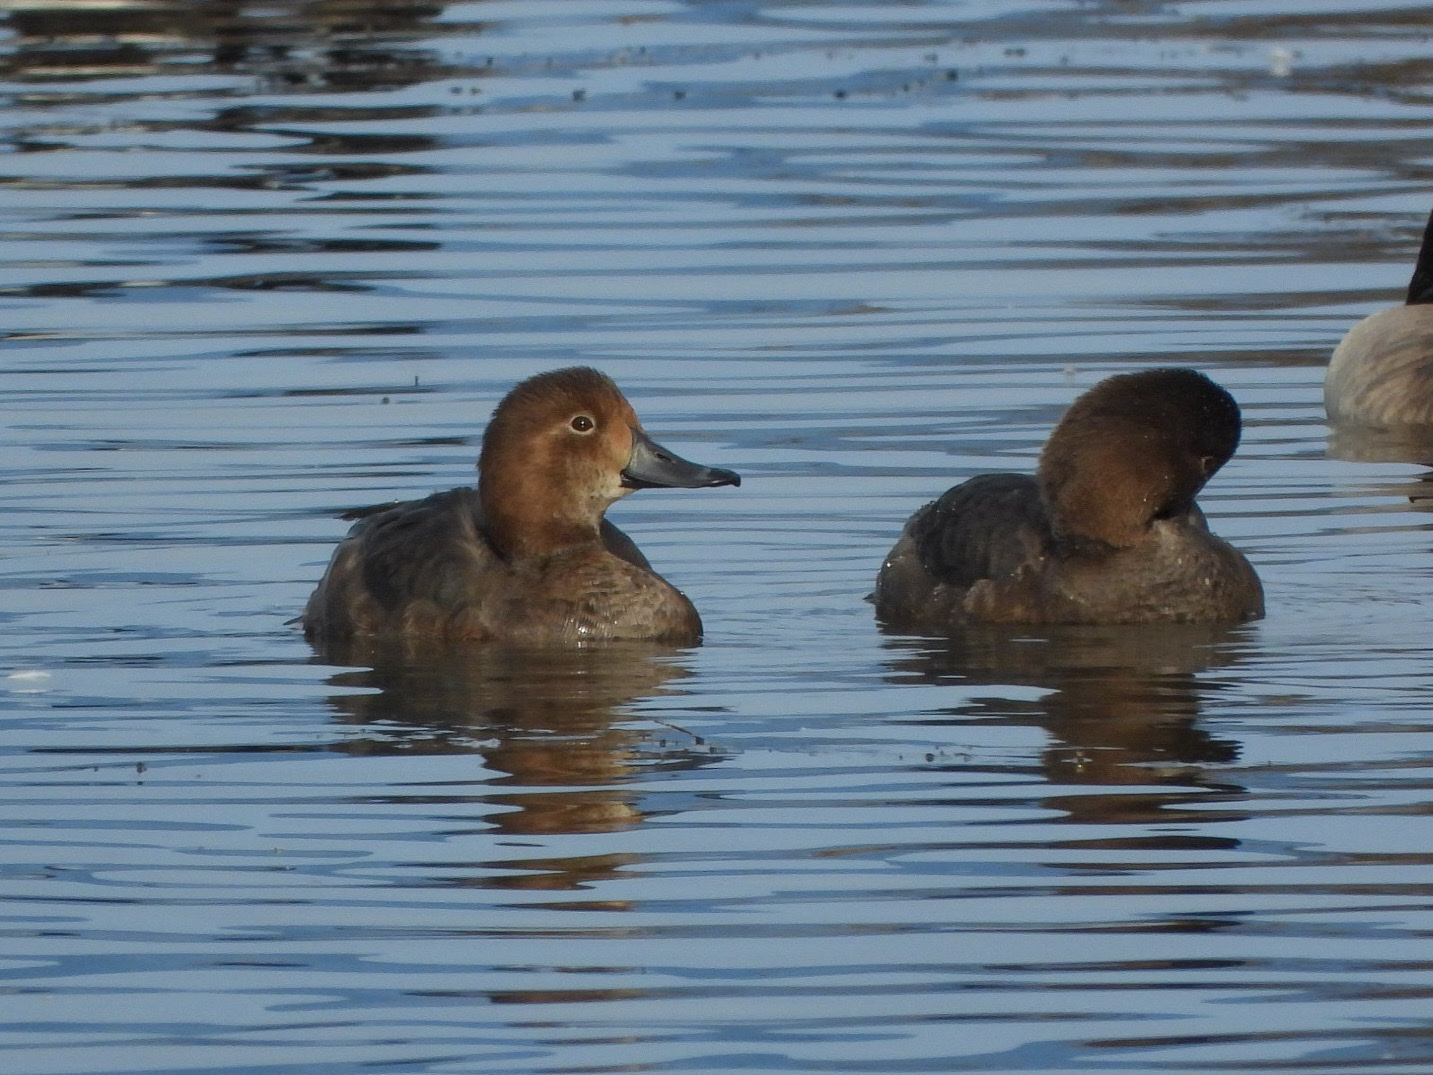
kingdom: Animalia
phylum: Chordata
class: Aves
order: Anseriformes
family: Anatidae
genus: Aythya
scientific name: Aythya americana
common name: Redhead
